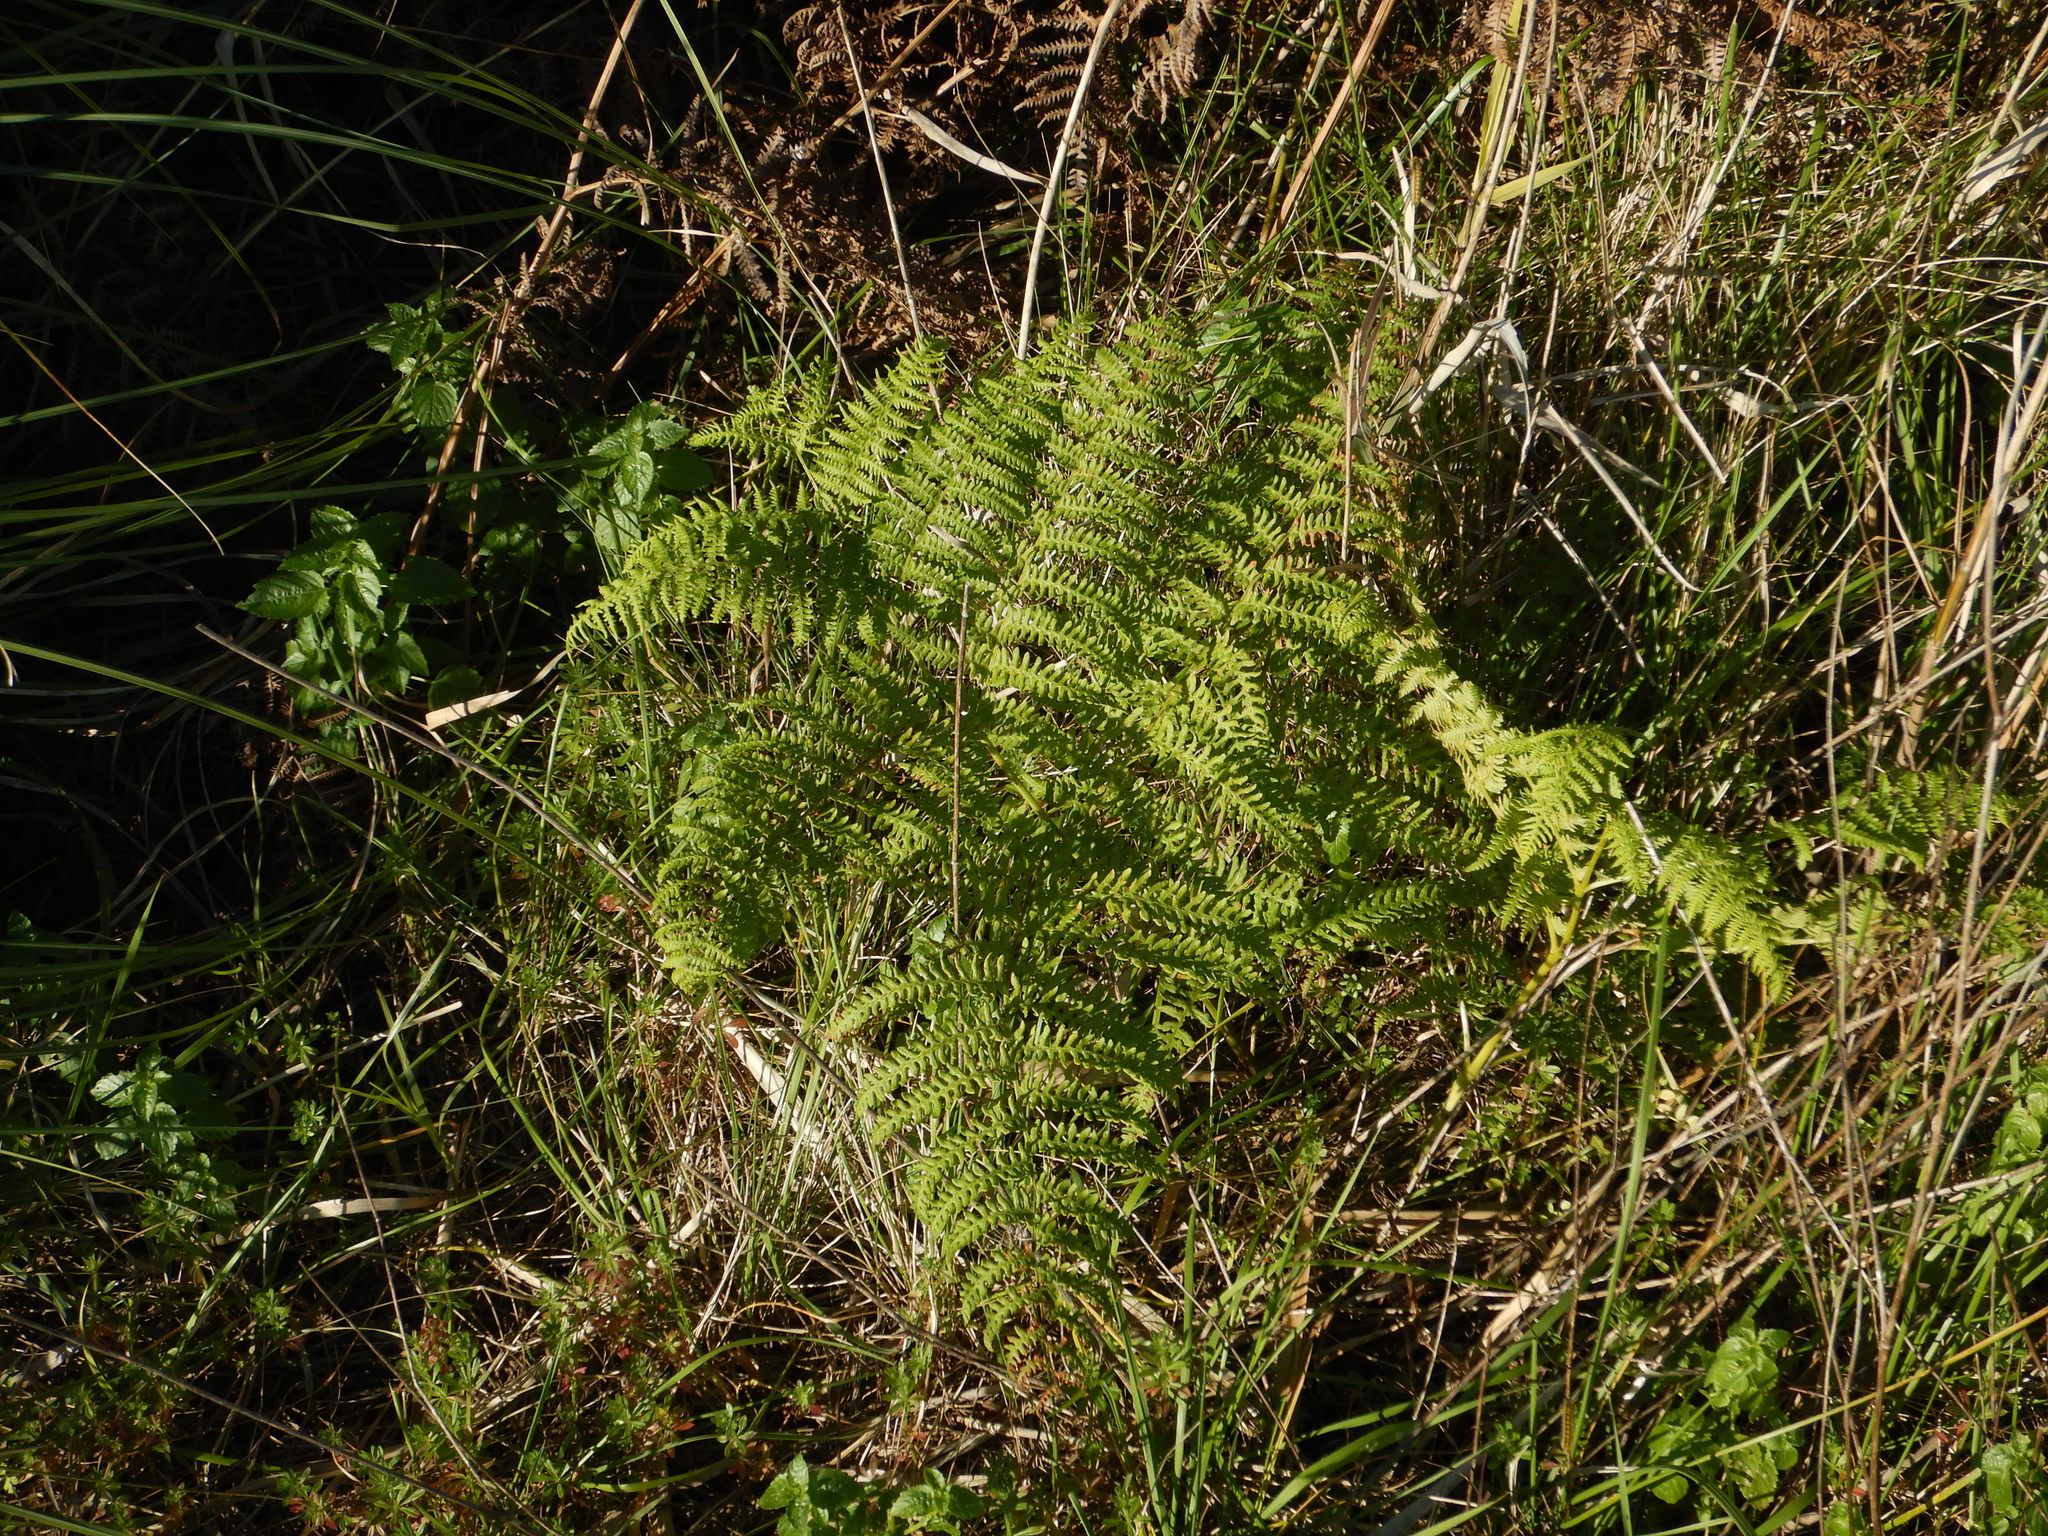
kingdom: Plantae
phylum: Tracheophyta
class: Polypodiopsida
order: Polypodiales
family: Dennstaedtiaceae
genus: Pteridium
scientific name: Pteridium aquilinum
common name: Bracken
